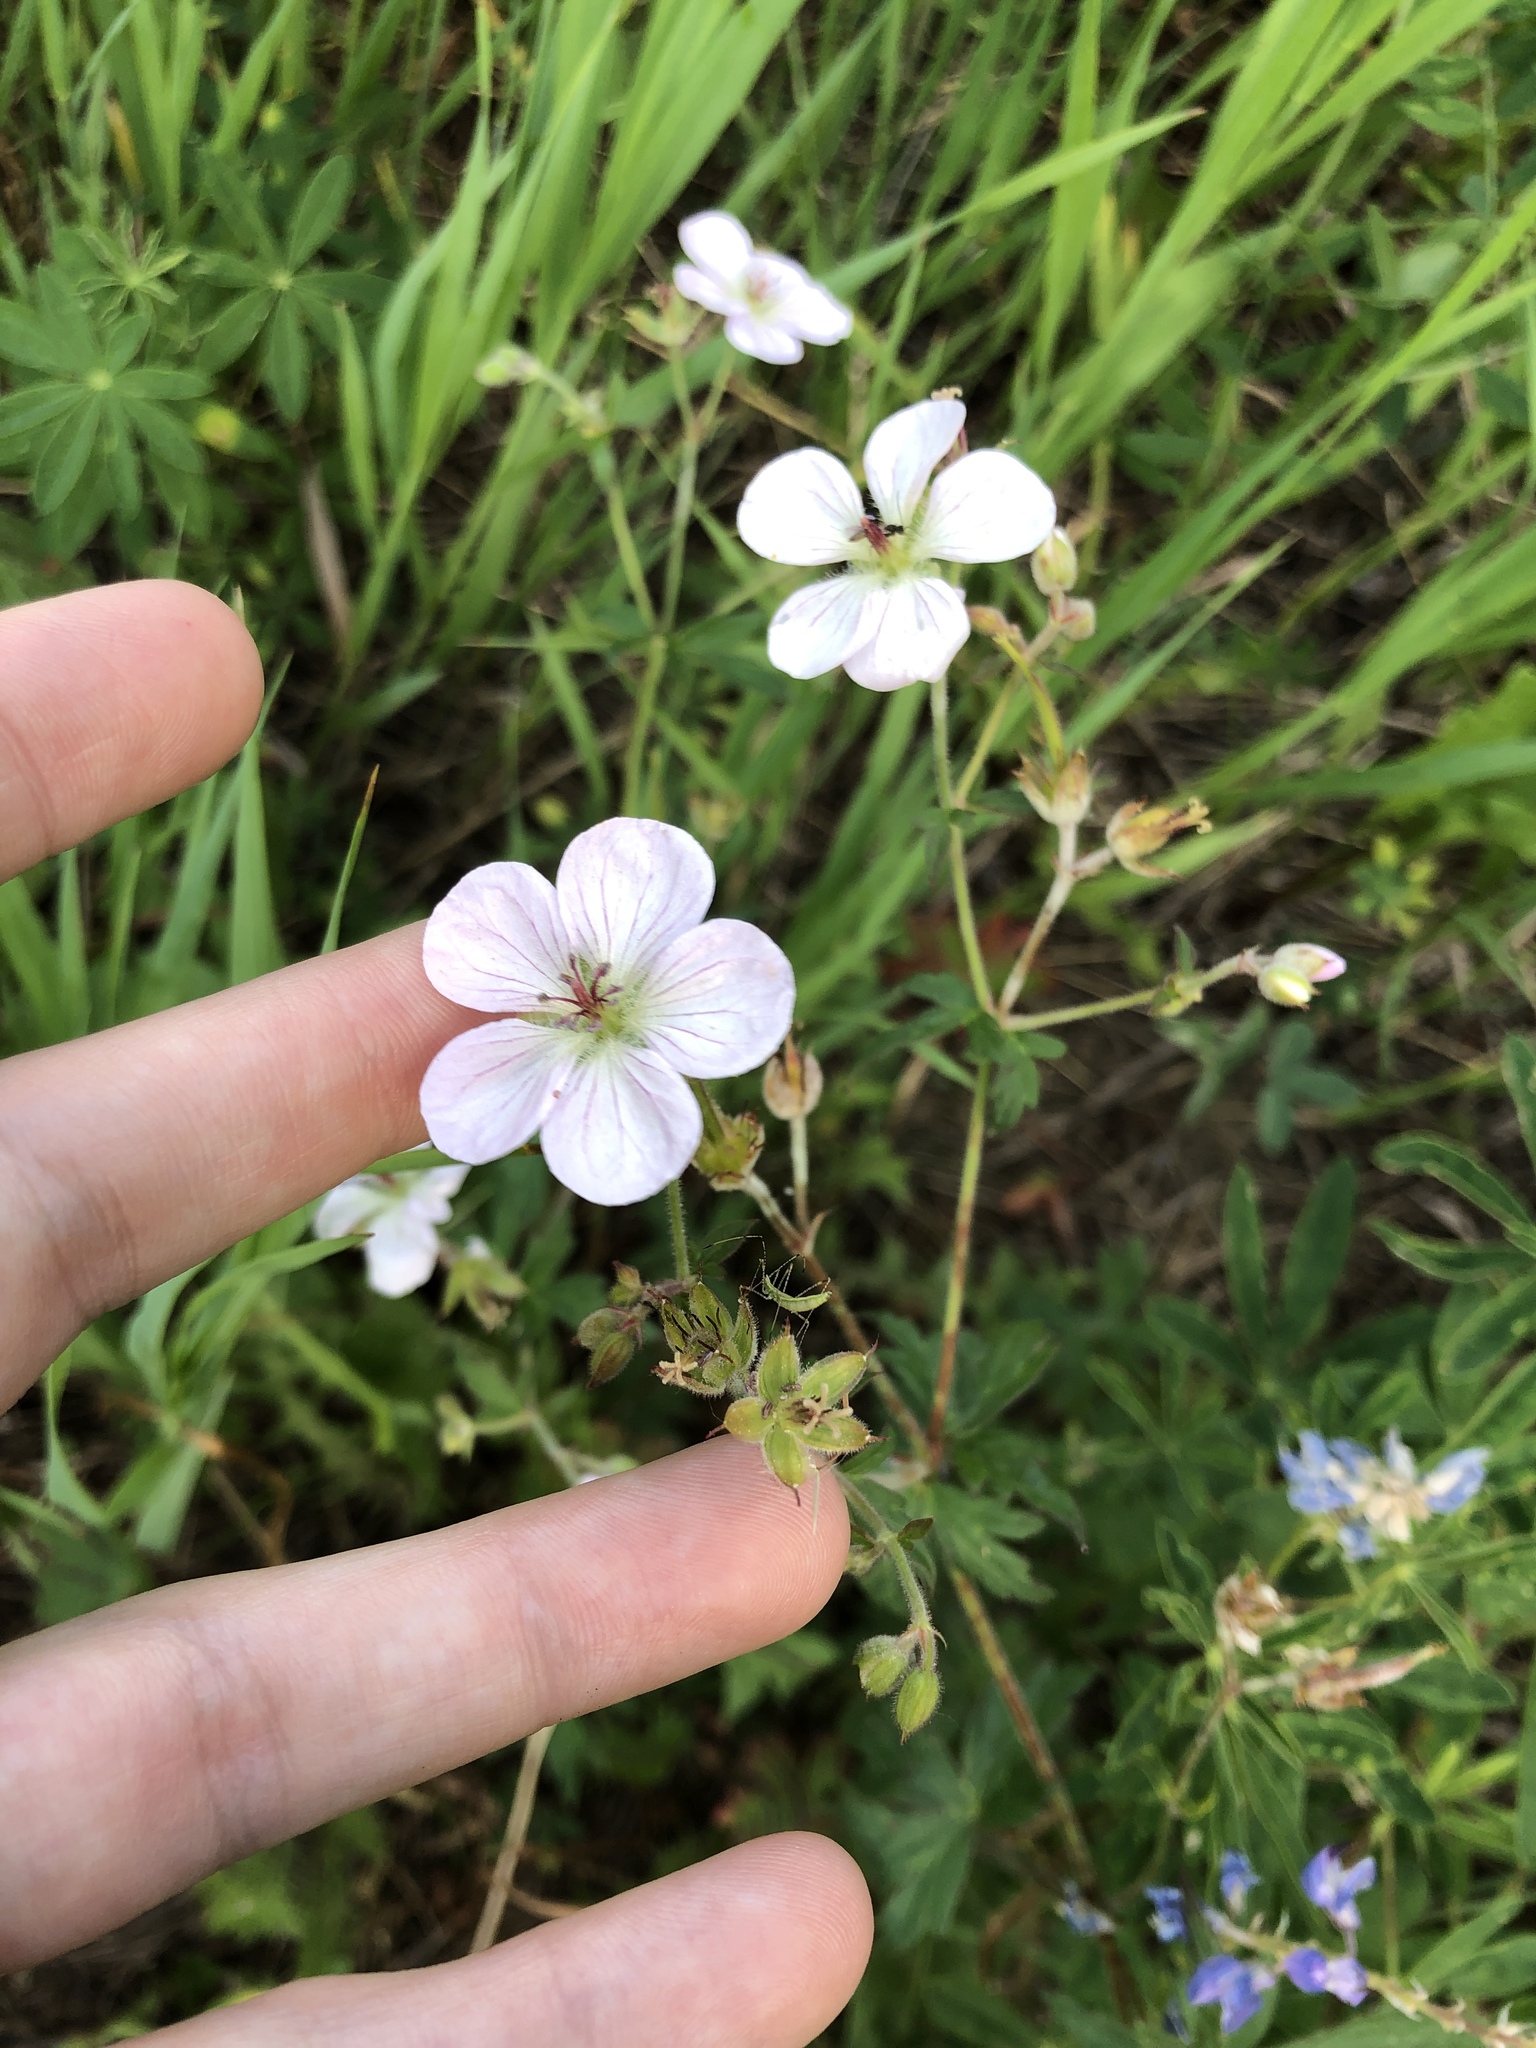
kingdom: Plantae
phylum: Tracheophyta
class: Magnoliopsida
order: Geraniales
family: Geraniaceae
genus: Geranium
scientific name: Geranium richardsonii
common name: Richardson's crane's-bill
